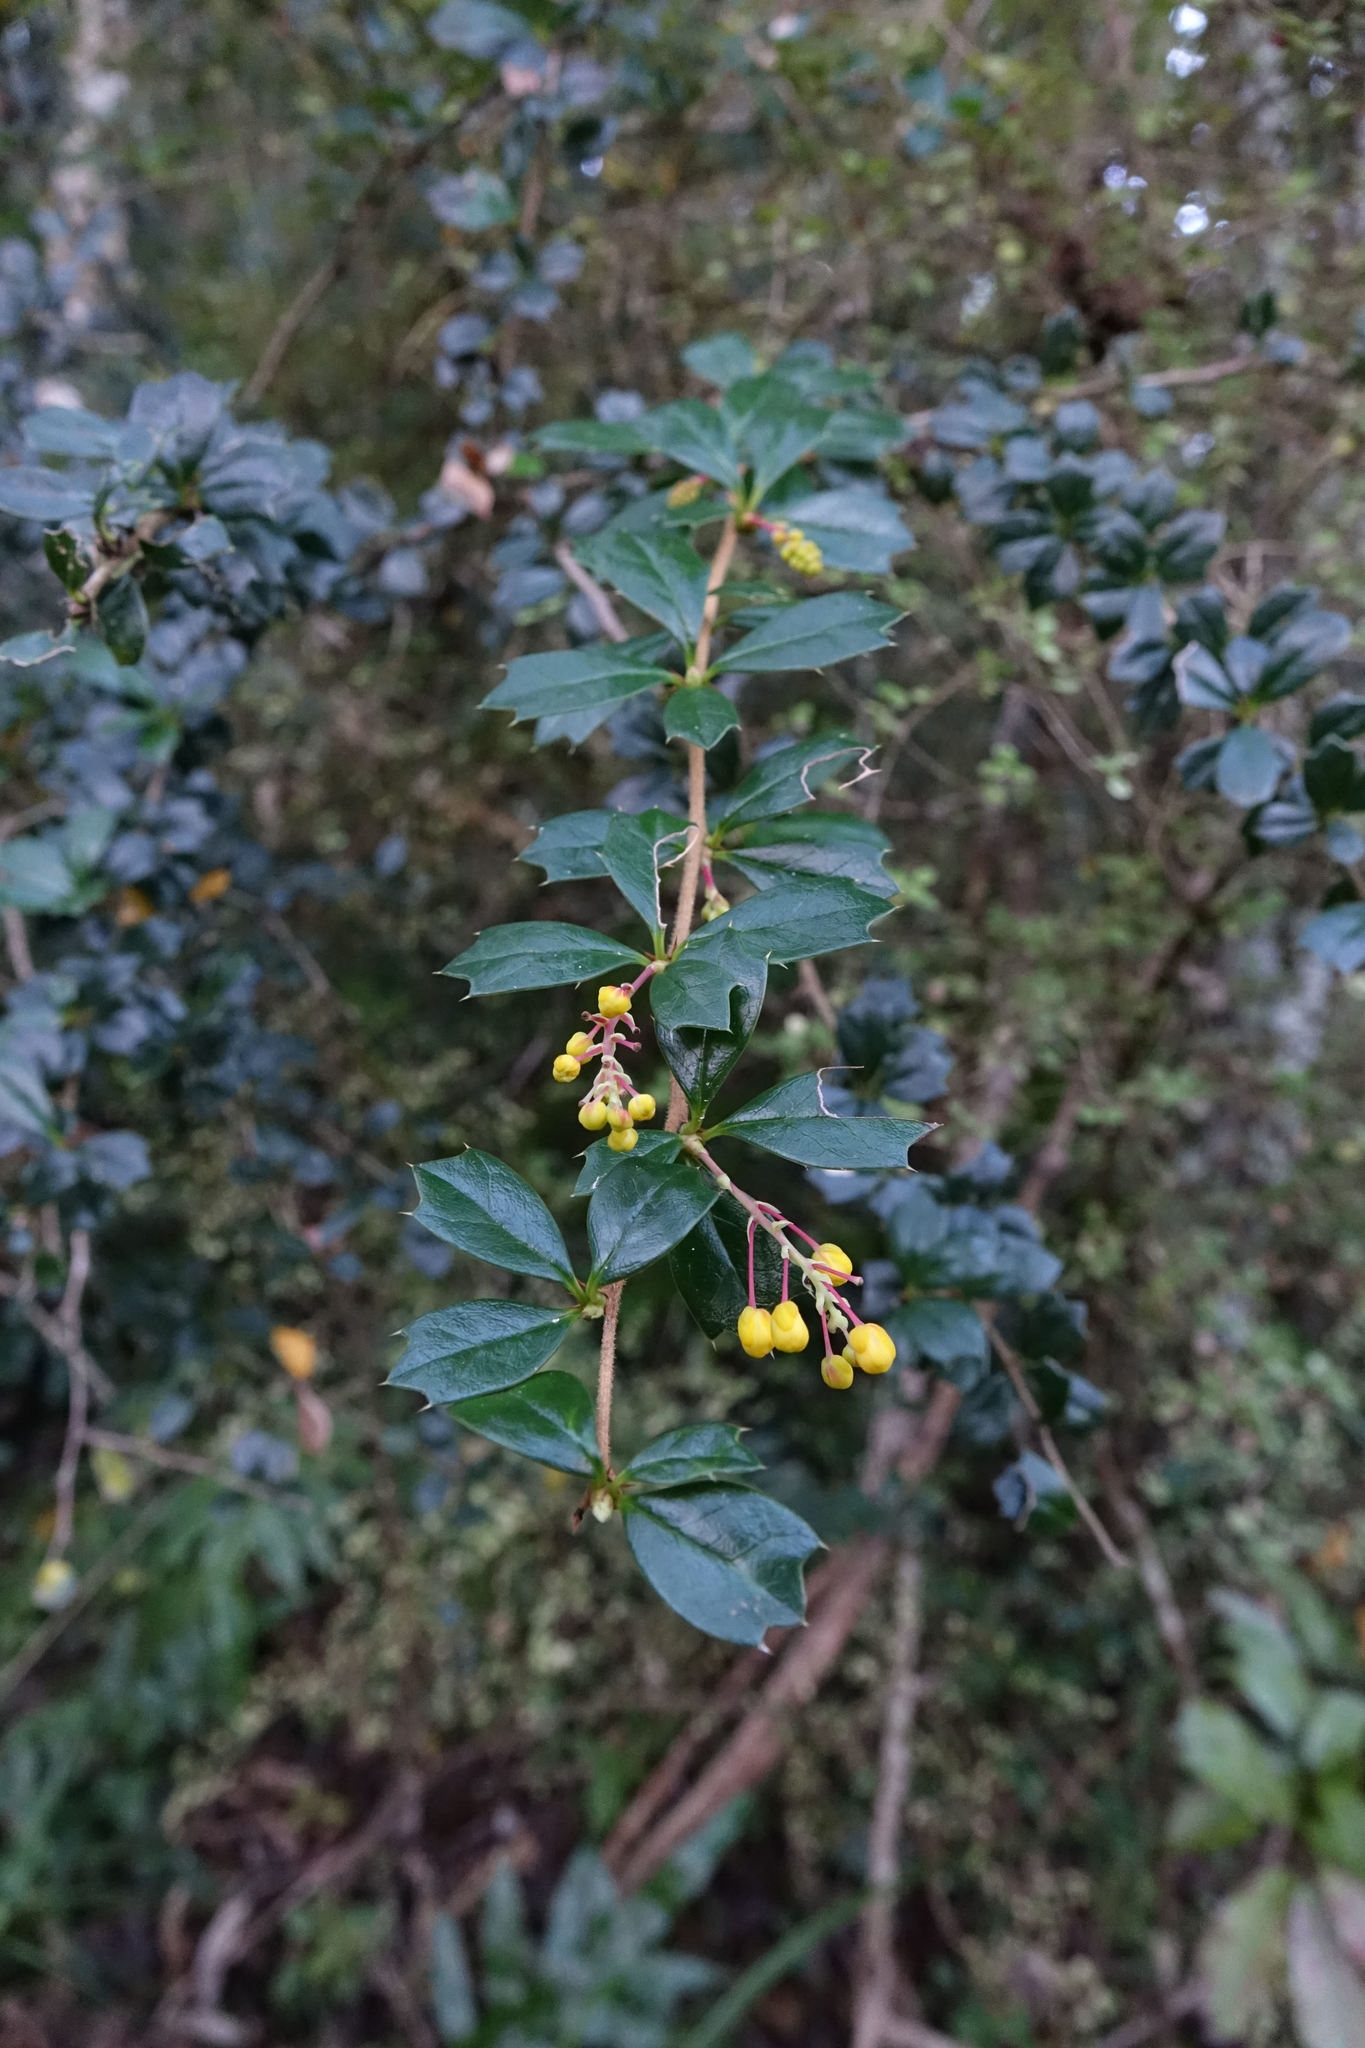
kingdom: Plantae
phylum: Tracheophyta
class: Magnoliopsida
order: Ranunculales
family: Berberidaceae
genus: Berberis
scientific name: Berberis darwinii
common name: Darwin's barberry
